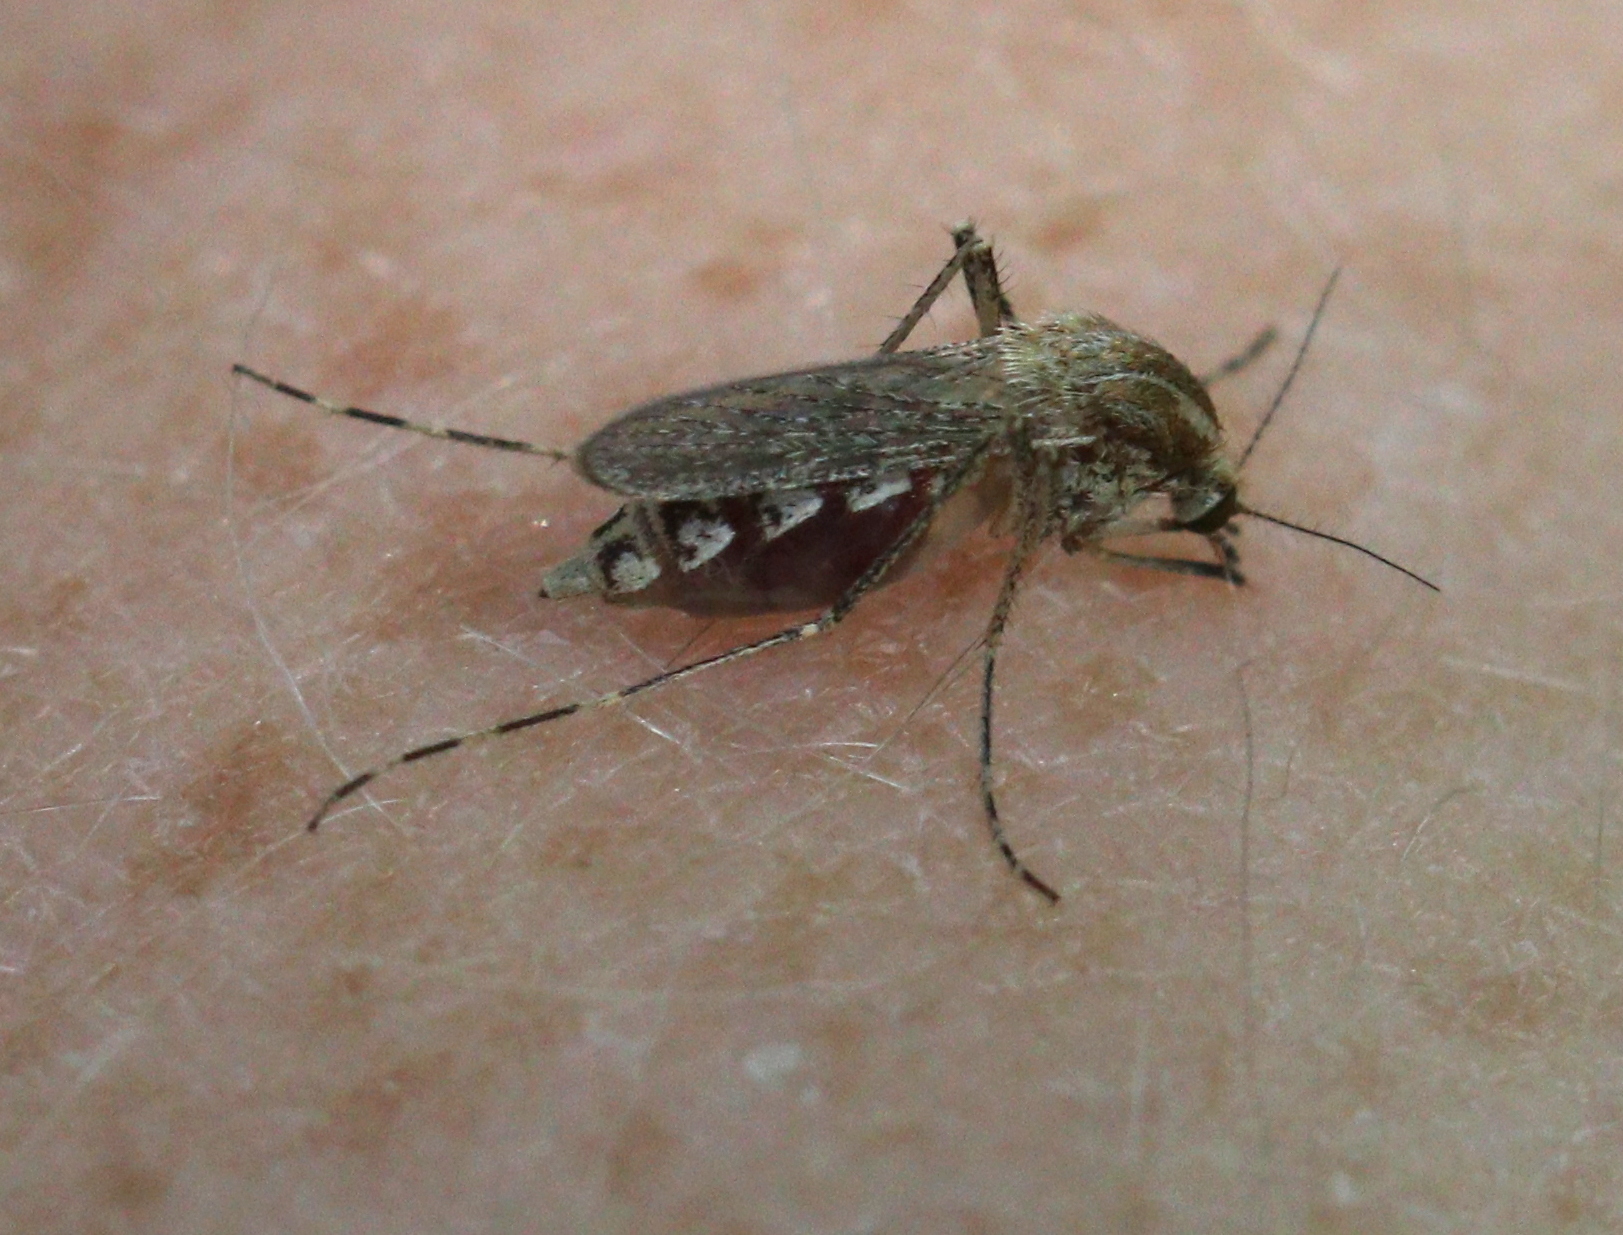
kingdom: Animalia
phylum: Arthropoda
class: Insecta
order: Diptera
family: Culicidae
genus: Aedes
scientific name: Aedes caspius
